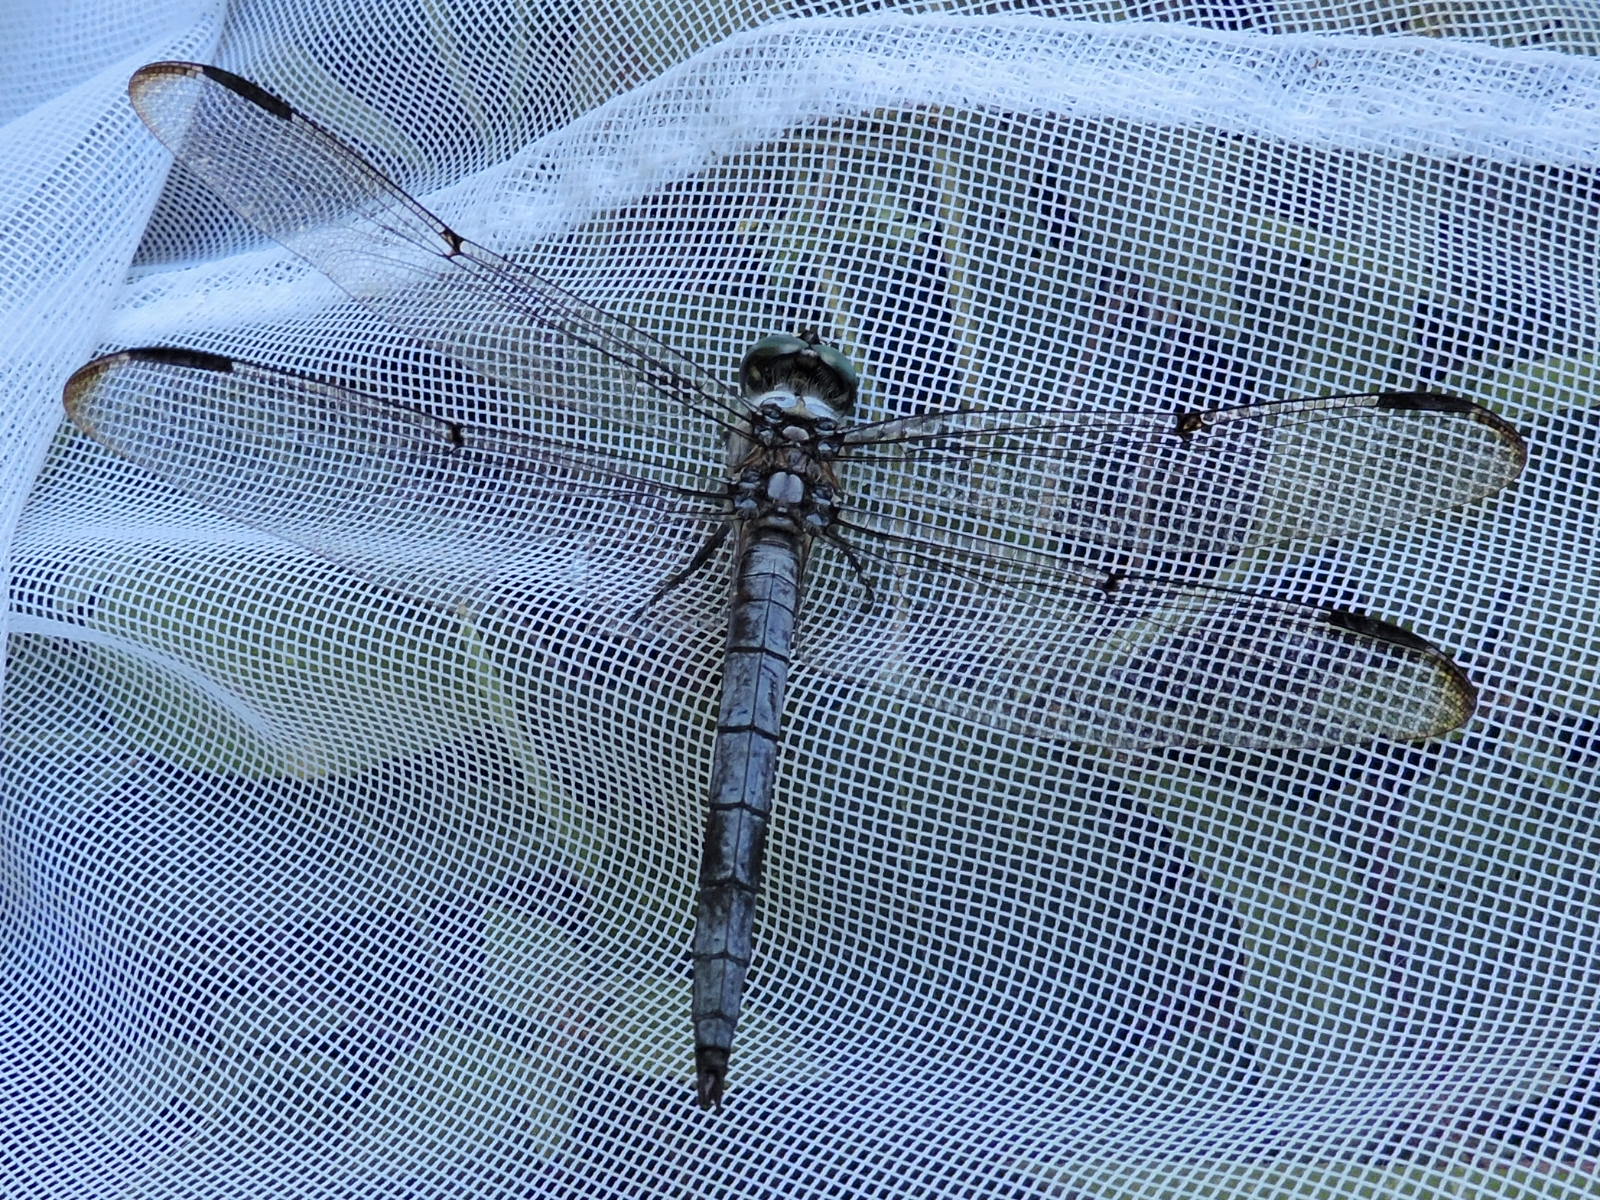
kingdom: Animalia
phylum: Arthropoda
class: Insecta
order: Odonata
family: Libellulidae
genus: Libellula
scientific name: Libellula vibrans
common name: Great blue skimmer
